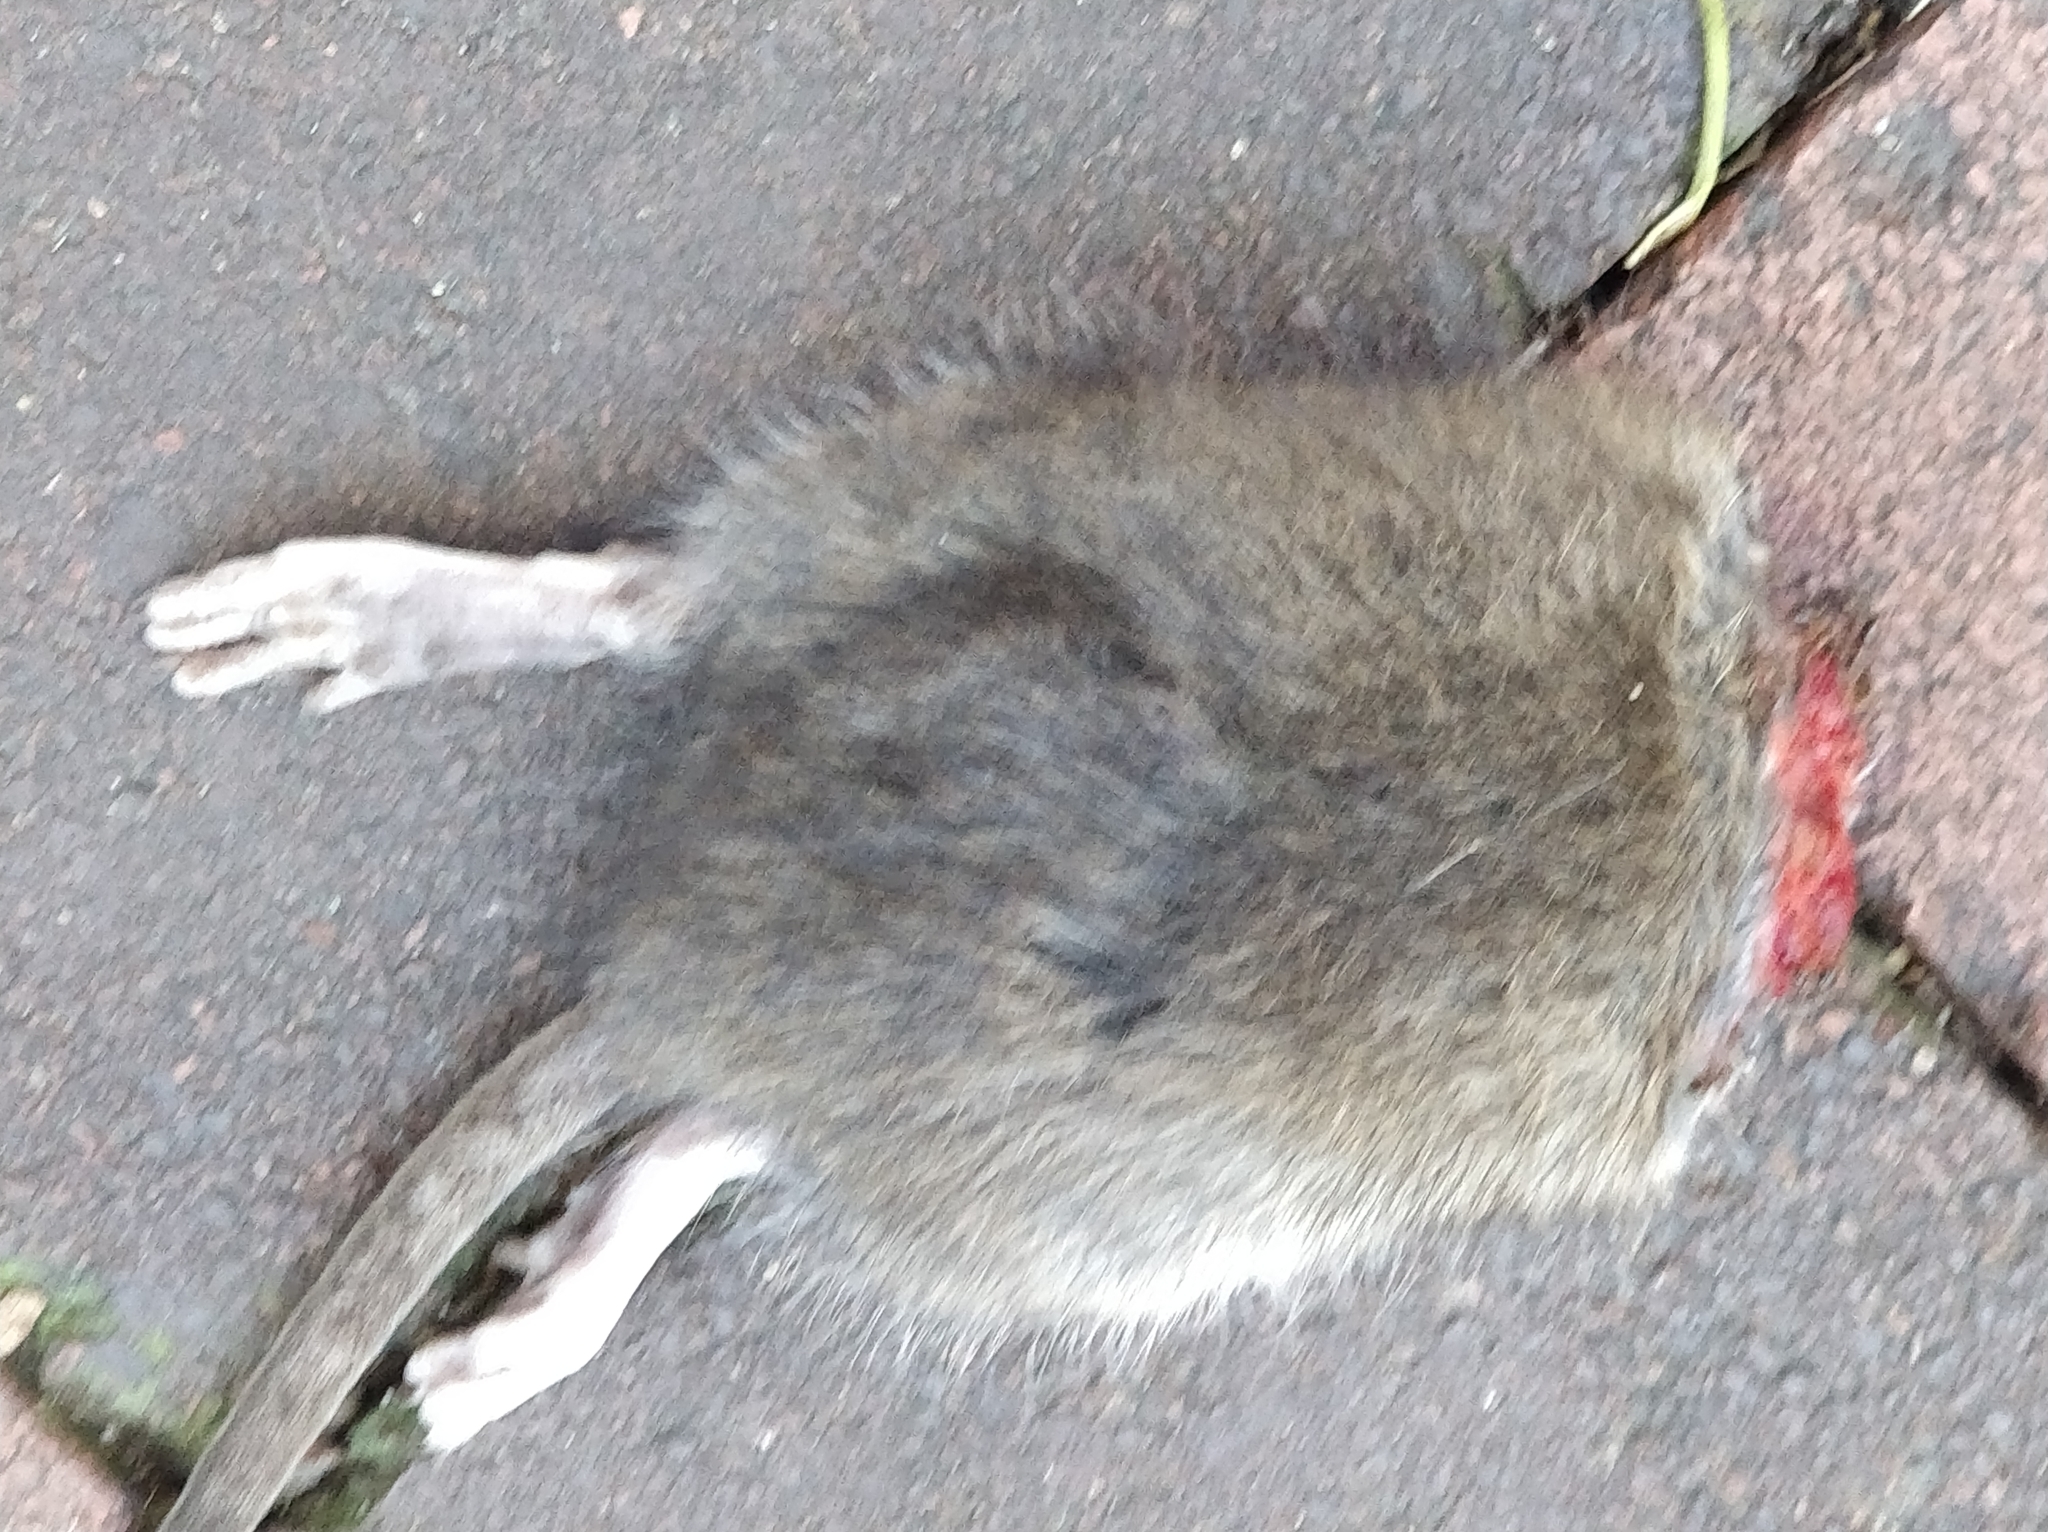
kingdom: Animalia
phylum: Chordata
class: Mammalia
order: Rodentia
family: Muridae
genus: Rattus
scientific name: Rattus norvegicus
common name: Brown rat
